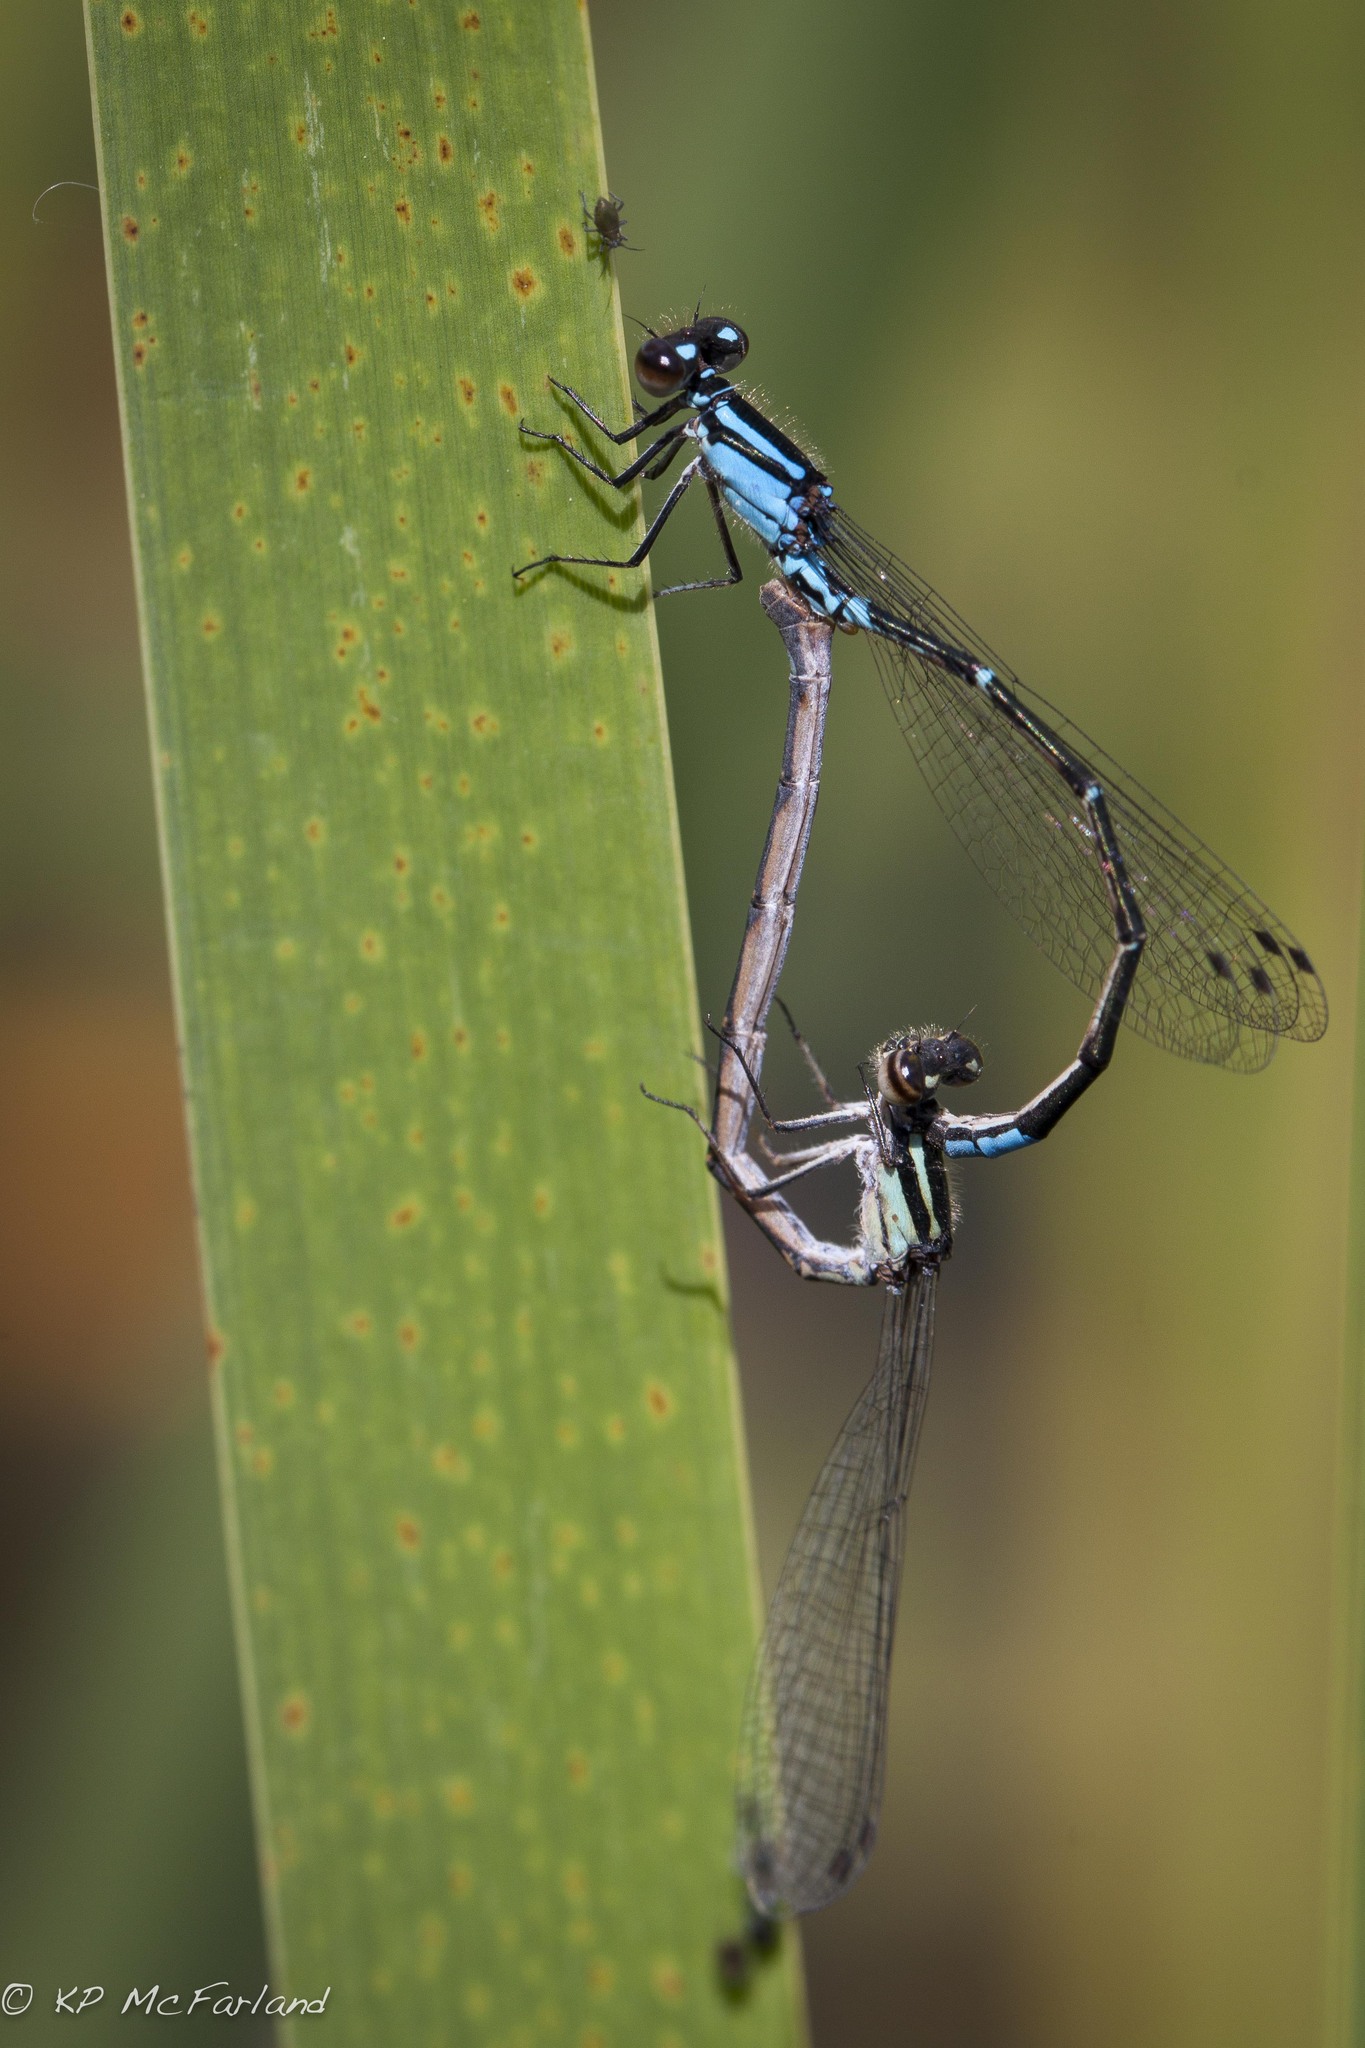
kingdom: Animalia
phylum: Arthropoda
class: Insecta
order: Odonata
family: Coenagrionidae
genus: Enallagma
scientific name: Enallagma geminatum
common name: Skimming bluet
